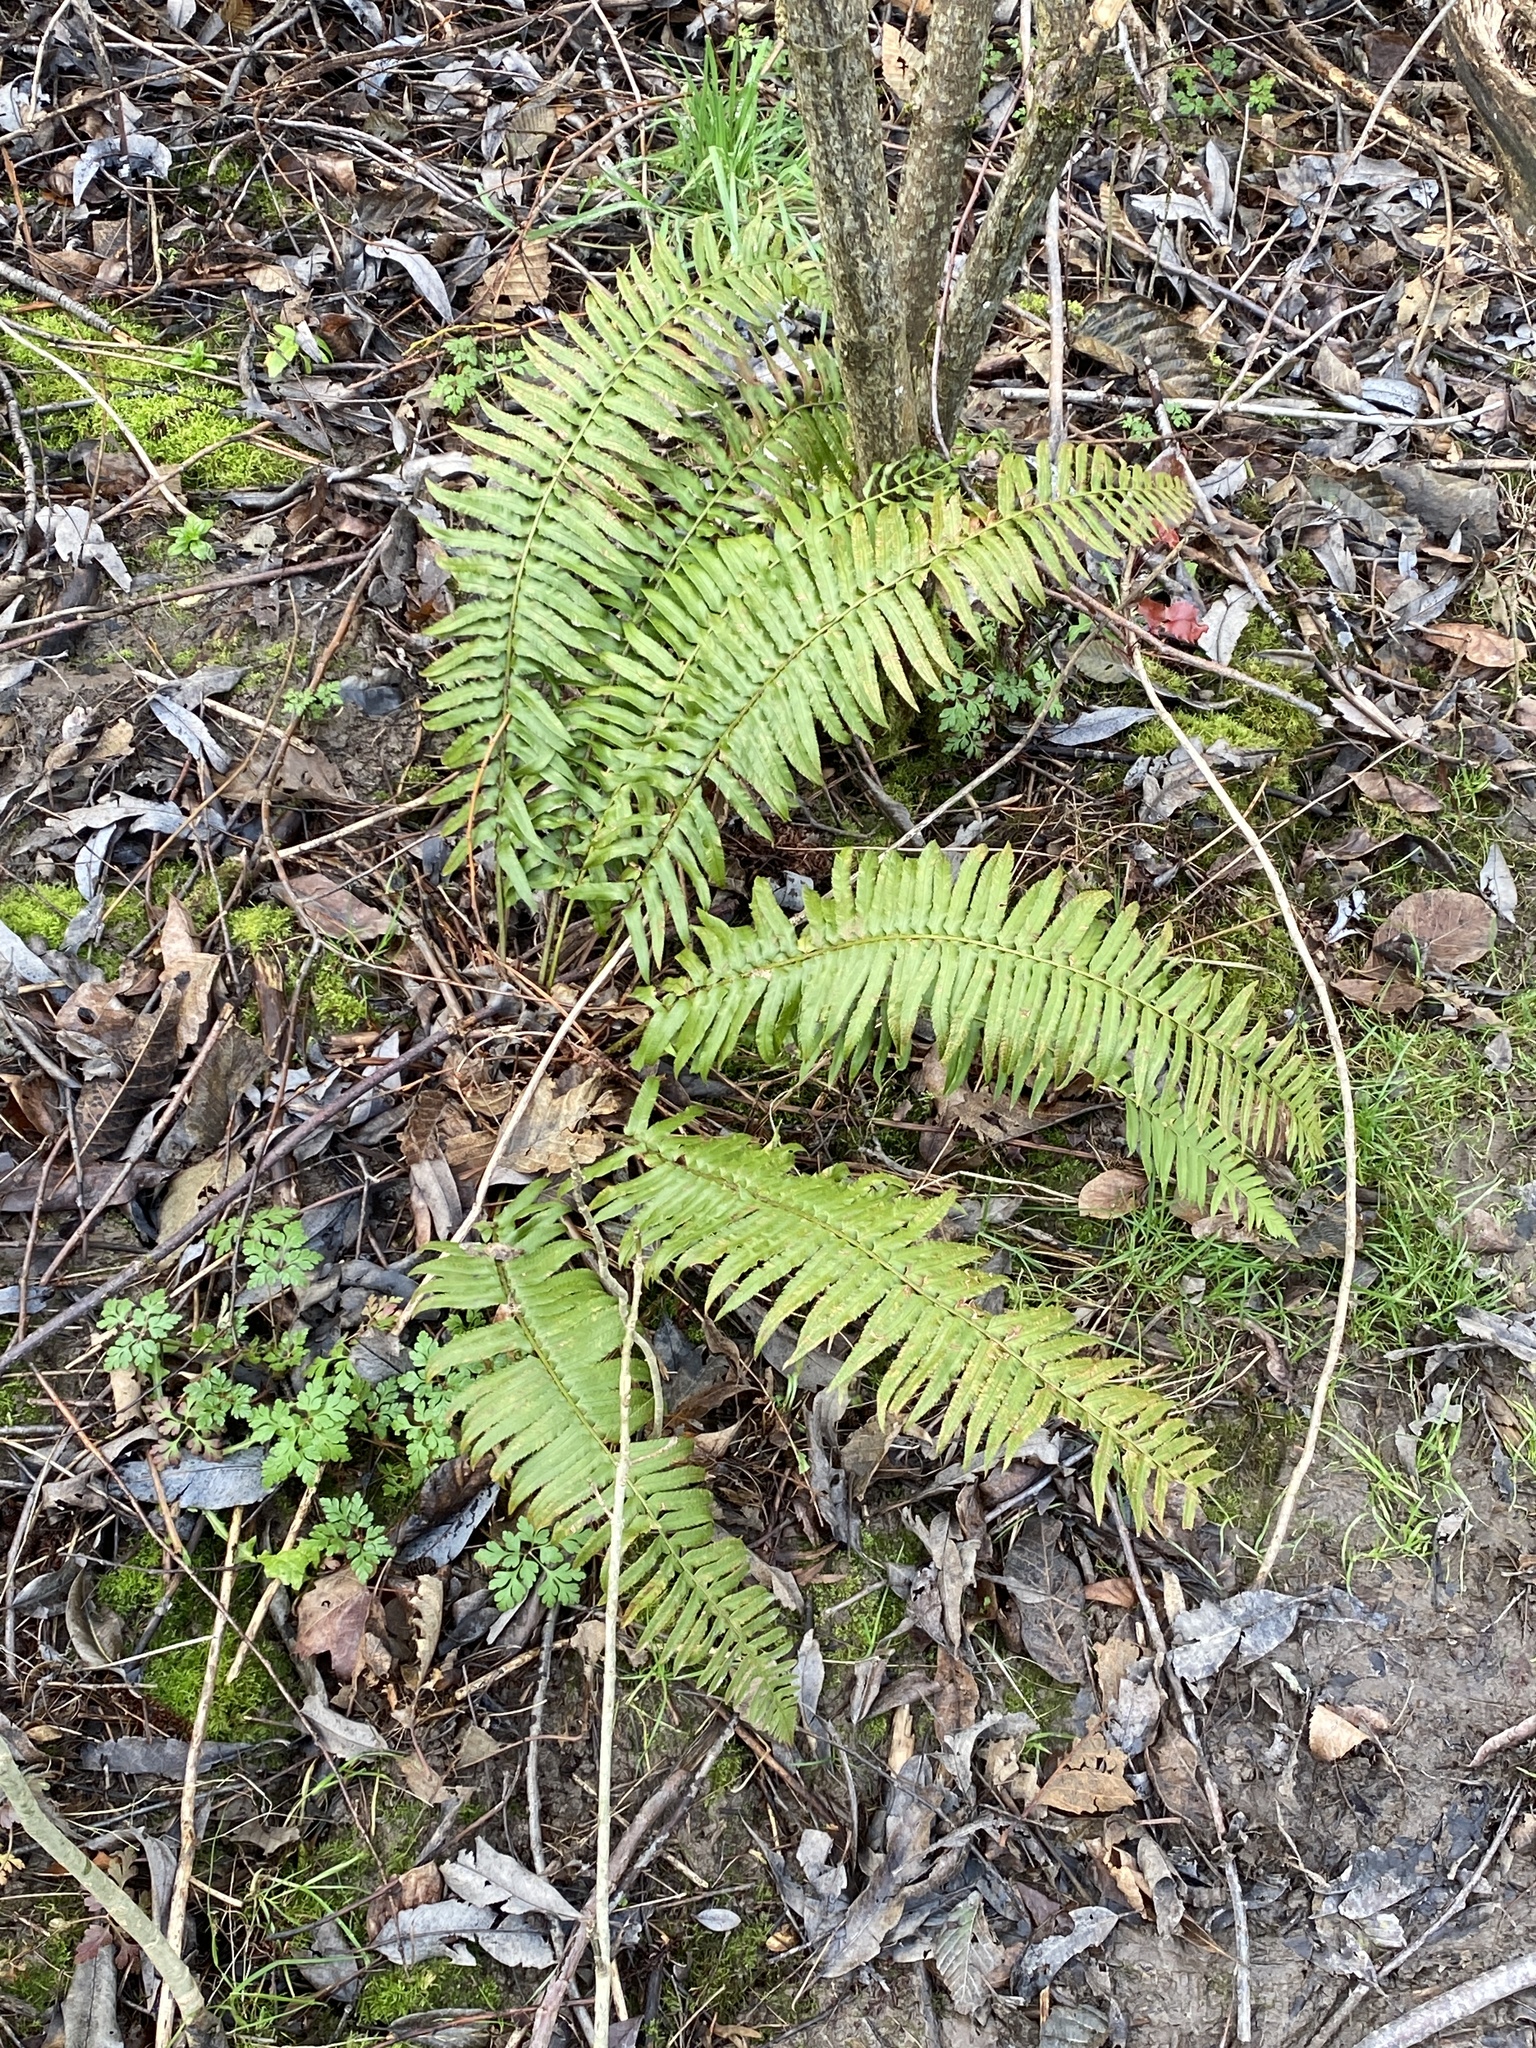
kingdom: Plantae
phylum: Tracheophyta
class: Polypodiopsida
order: Polypodiales
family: Dryopteridaceae
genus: Polystichum
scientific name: Polystichum munitum
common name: Western sword-fern
